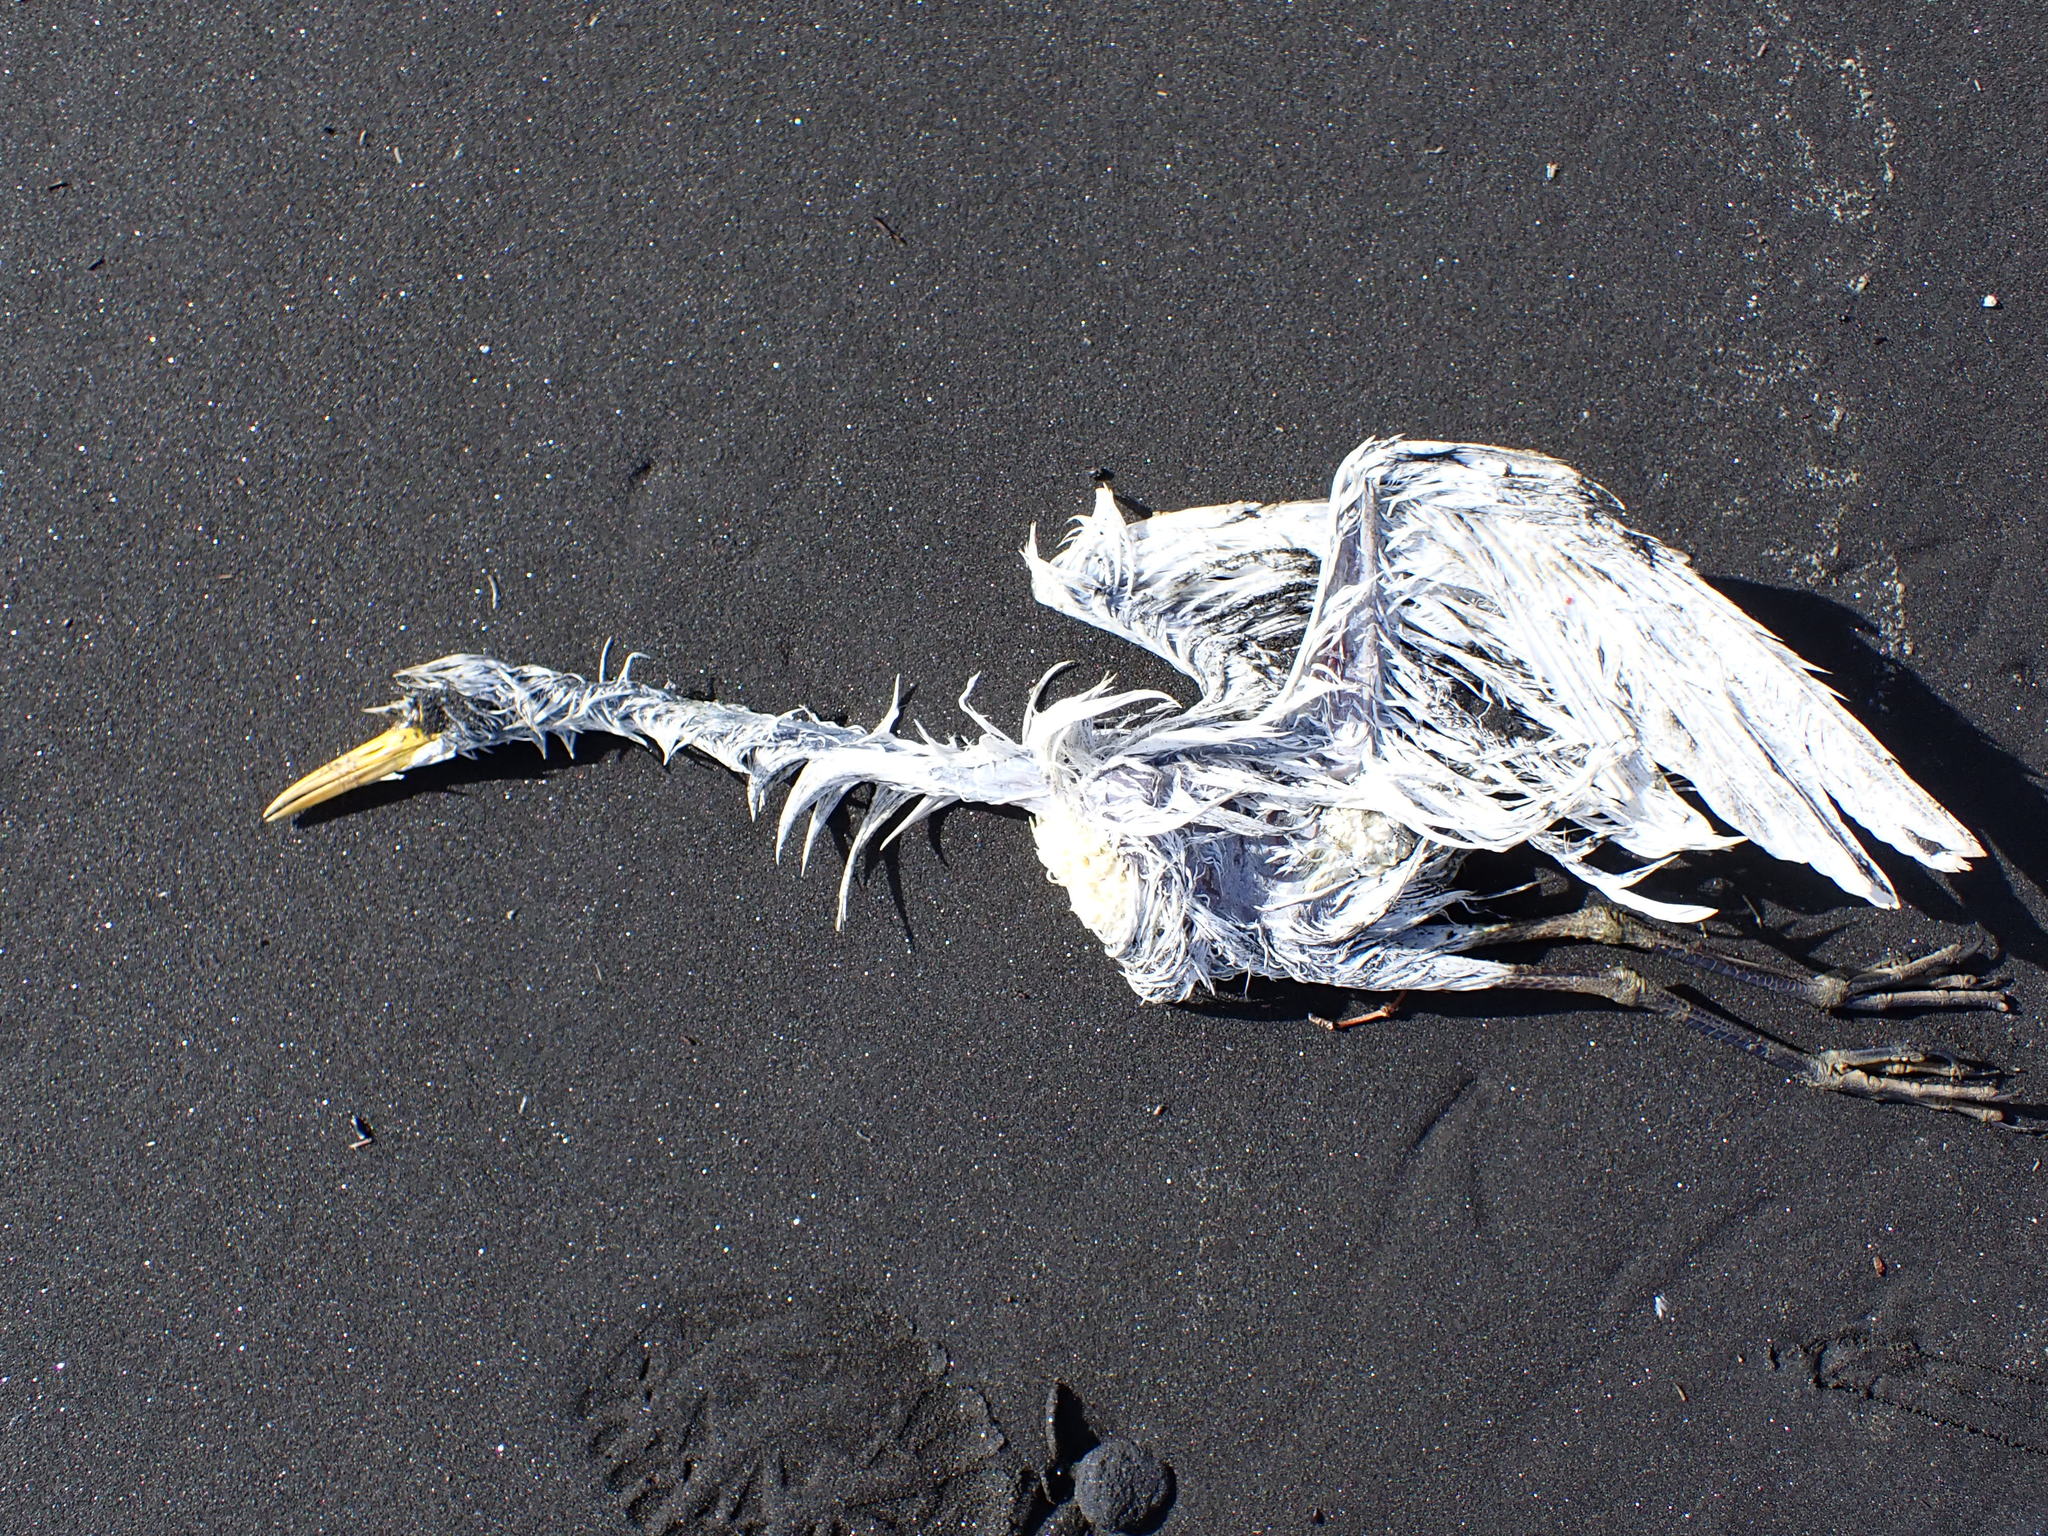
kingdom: Animalia
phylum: Chordata
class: Aves
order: Pelecaniformes
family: Ardeidae
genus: Bubulcus
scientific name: Bubulcus coromandus
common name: Eastern cattle egret
